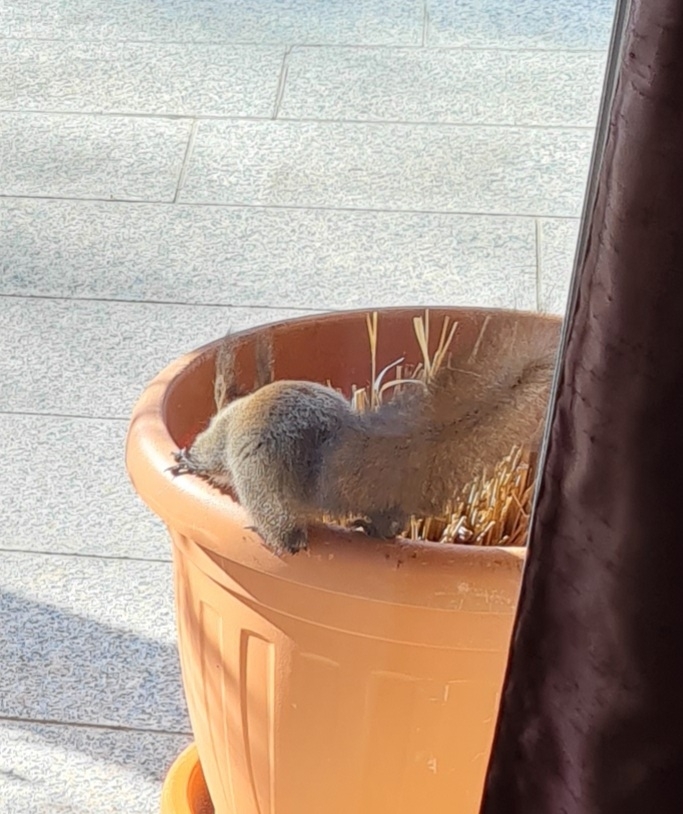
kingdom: Animalia
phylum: Chordata
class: Mammalia
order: Rodentia
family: Sciuridae
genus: Sciurus
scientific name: Sciurus vulgaris
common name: Eurasian red squirrel
